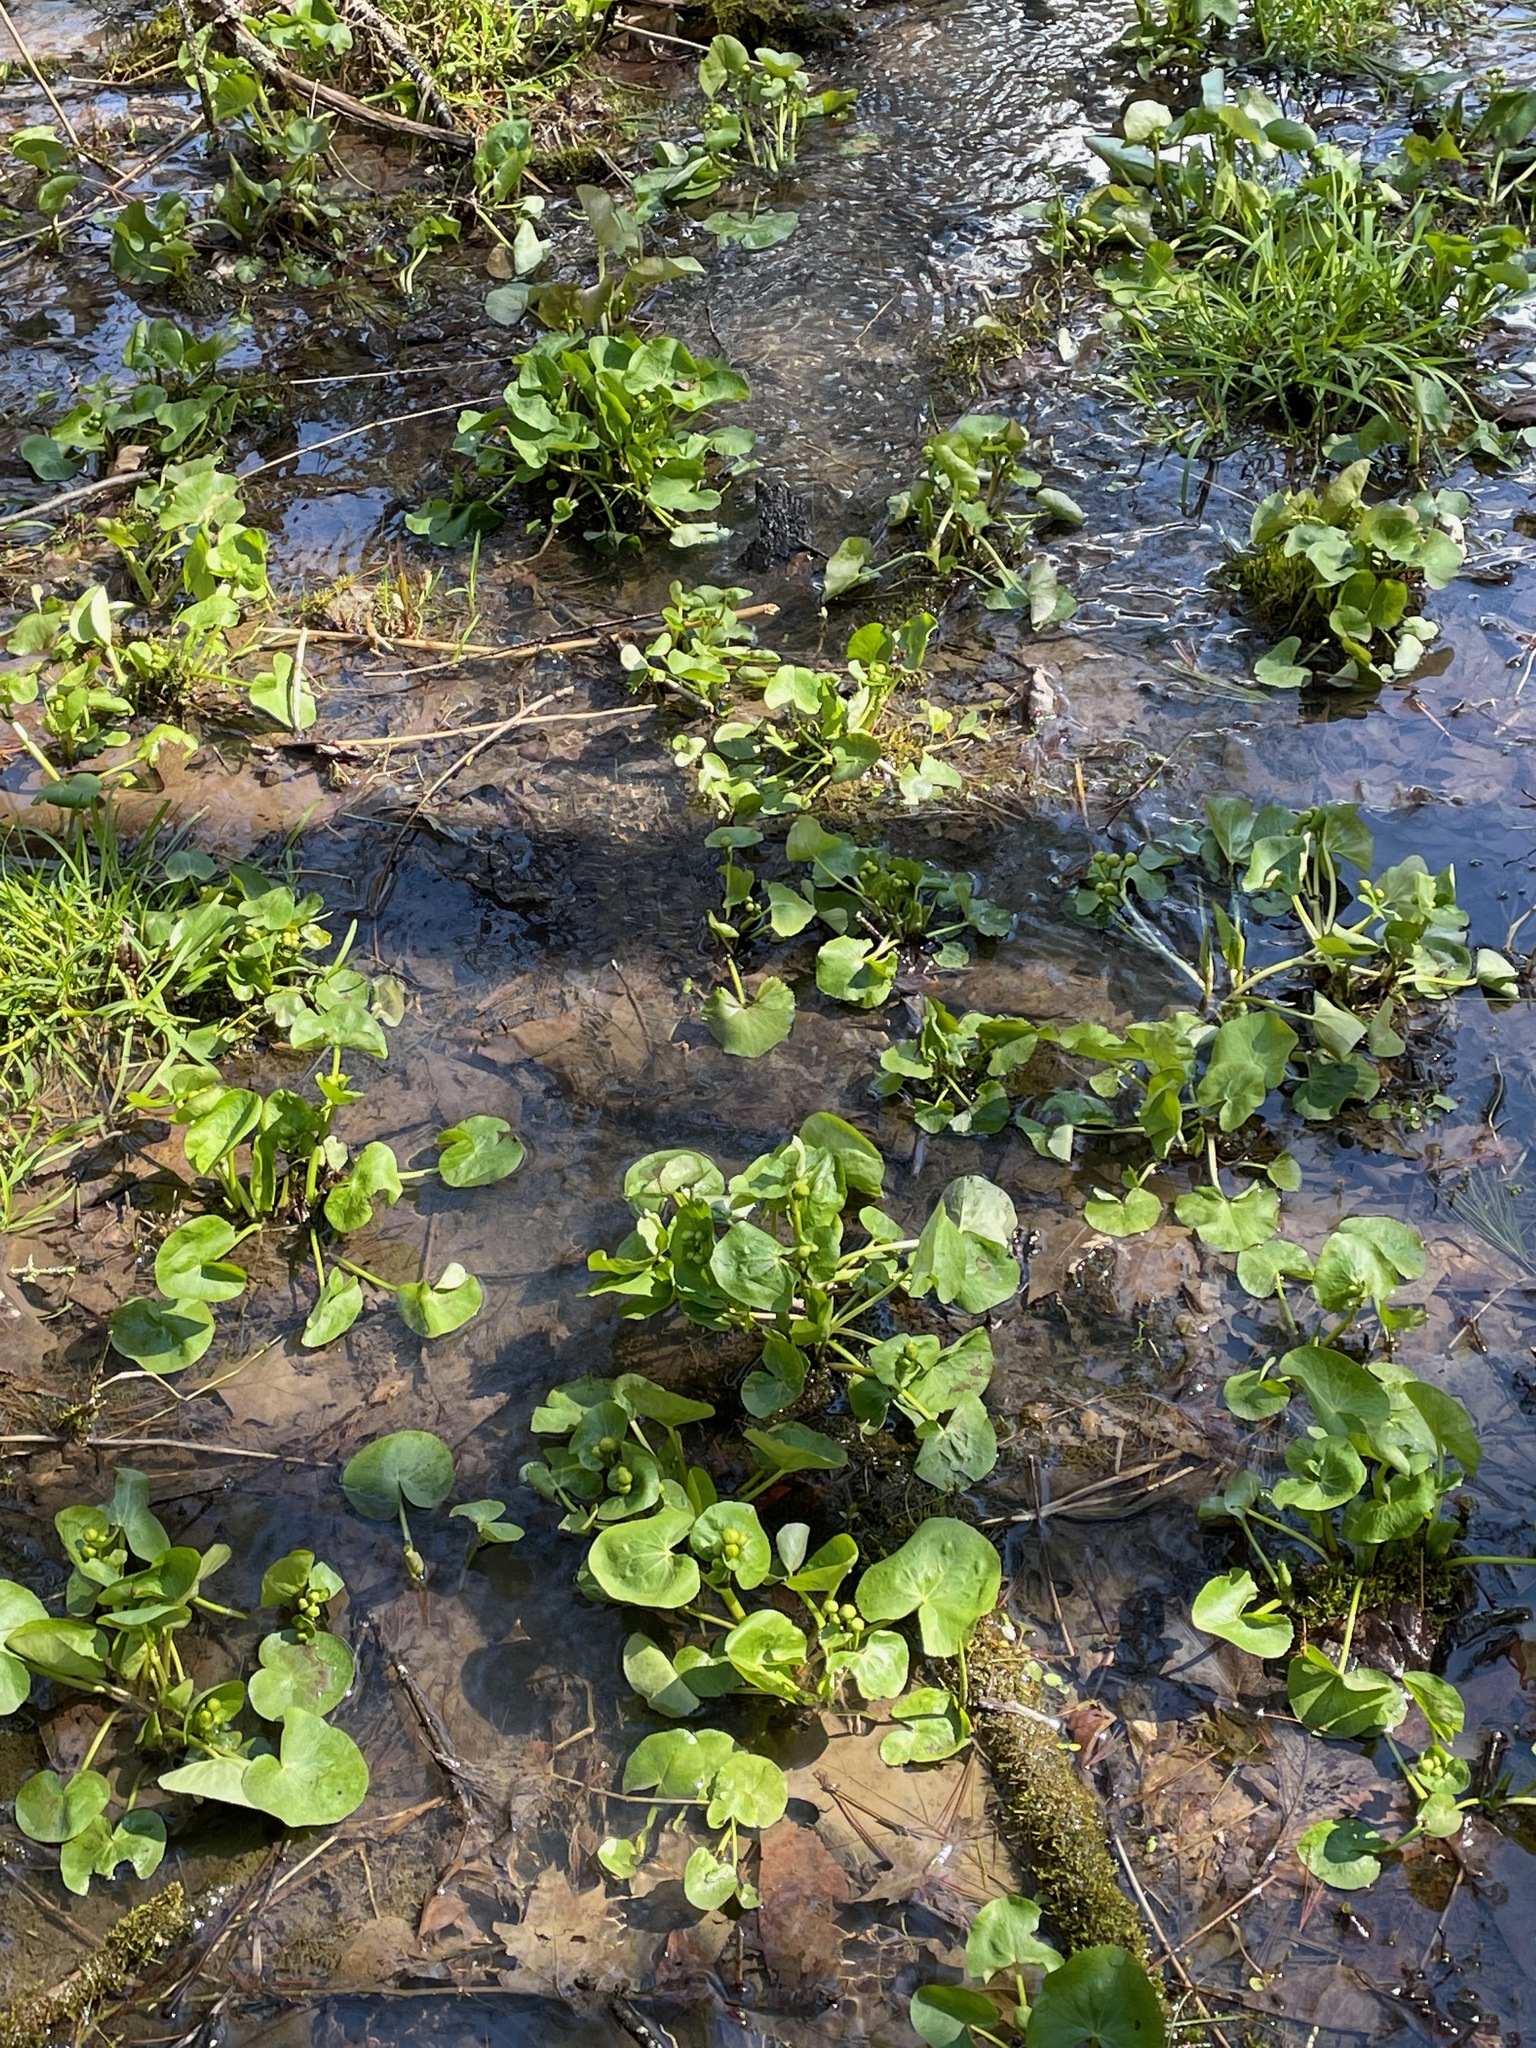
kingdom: Plantae
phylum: Tracheophyta
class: Magnoliopsida
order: Ranunculales
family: Ranunculaceae
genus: Caltha
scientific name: Caltha palustris
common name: Marsh marigold
